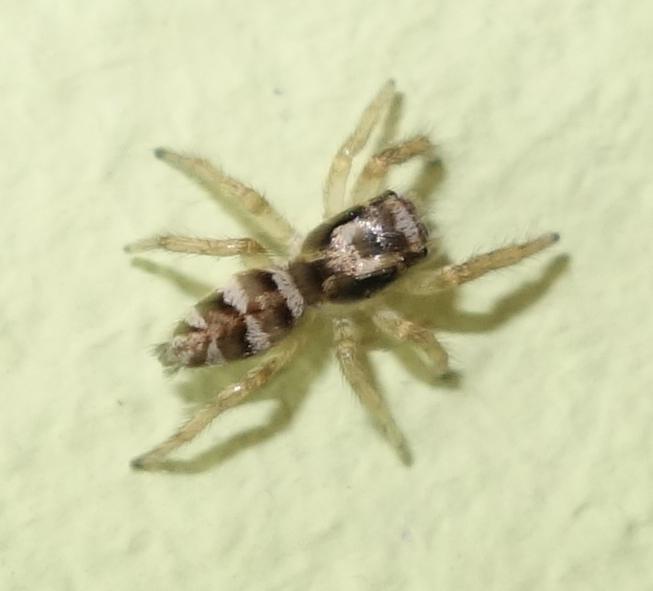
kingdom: Animalia
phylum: Arthropoda
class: Arachnida
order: Araneae
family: Salticidae
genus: Salticus
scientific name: Salticus scenicus
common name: Zebra jumper
